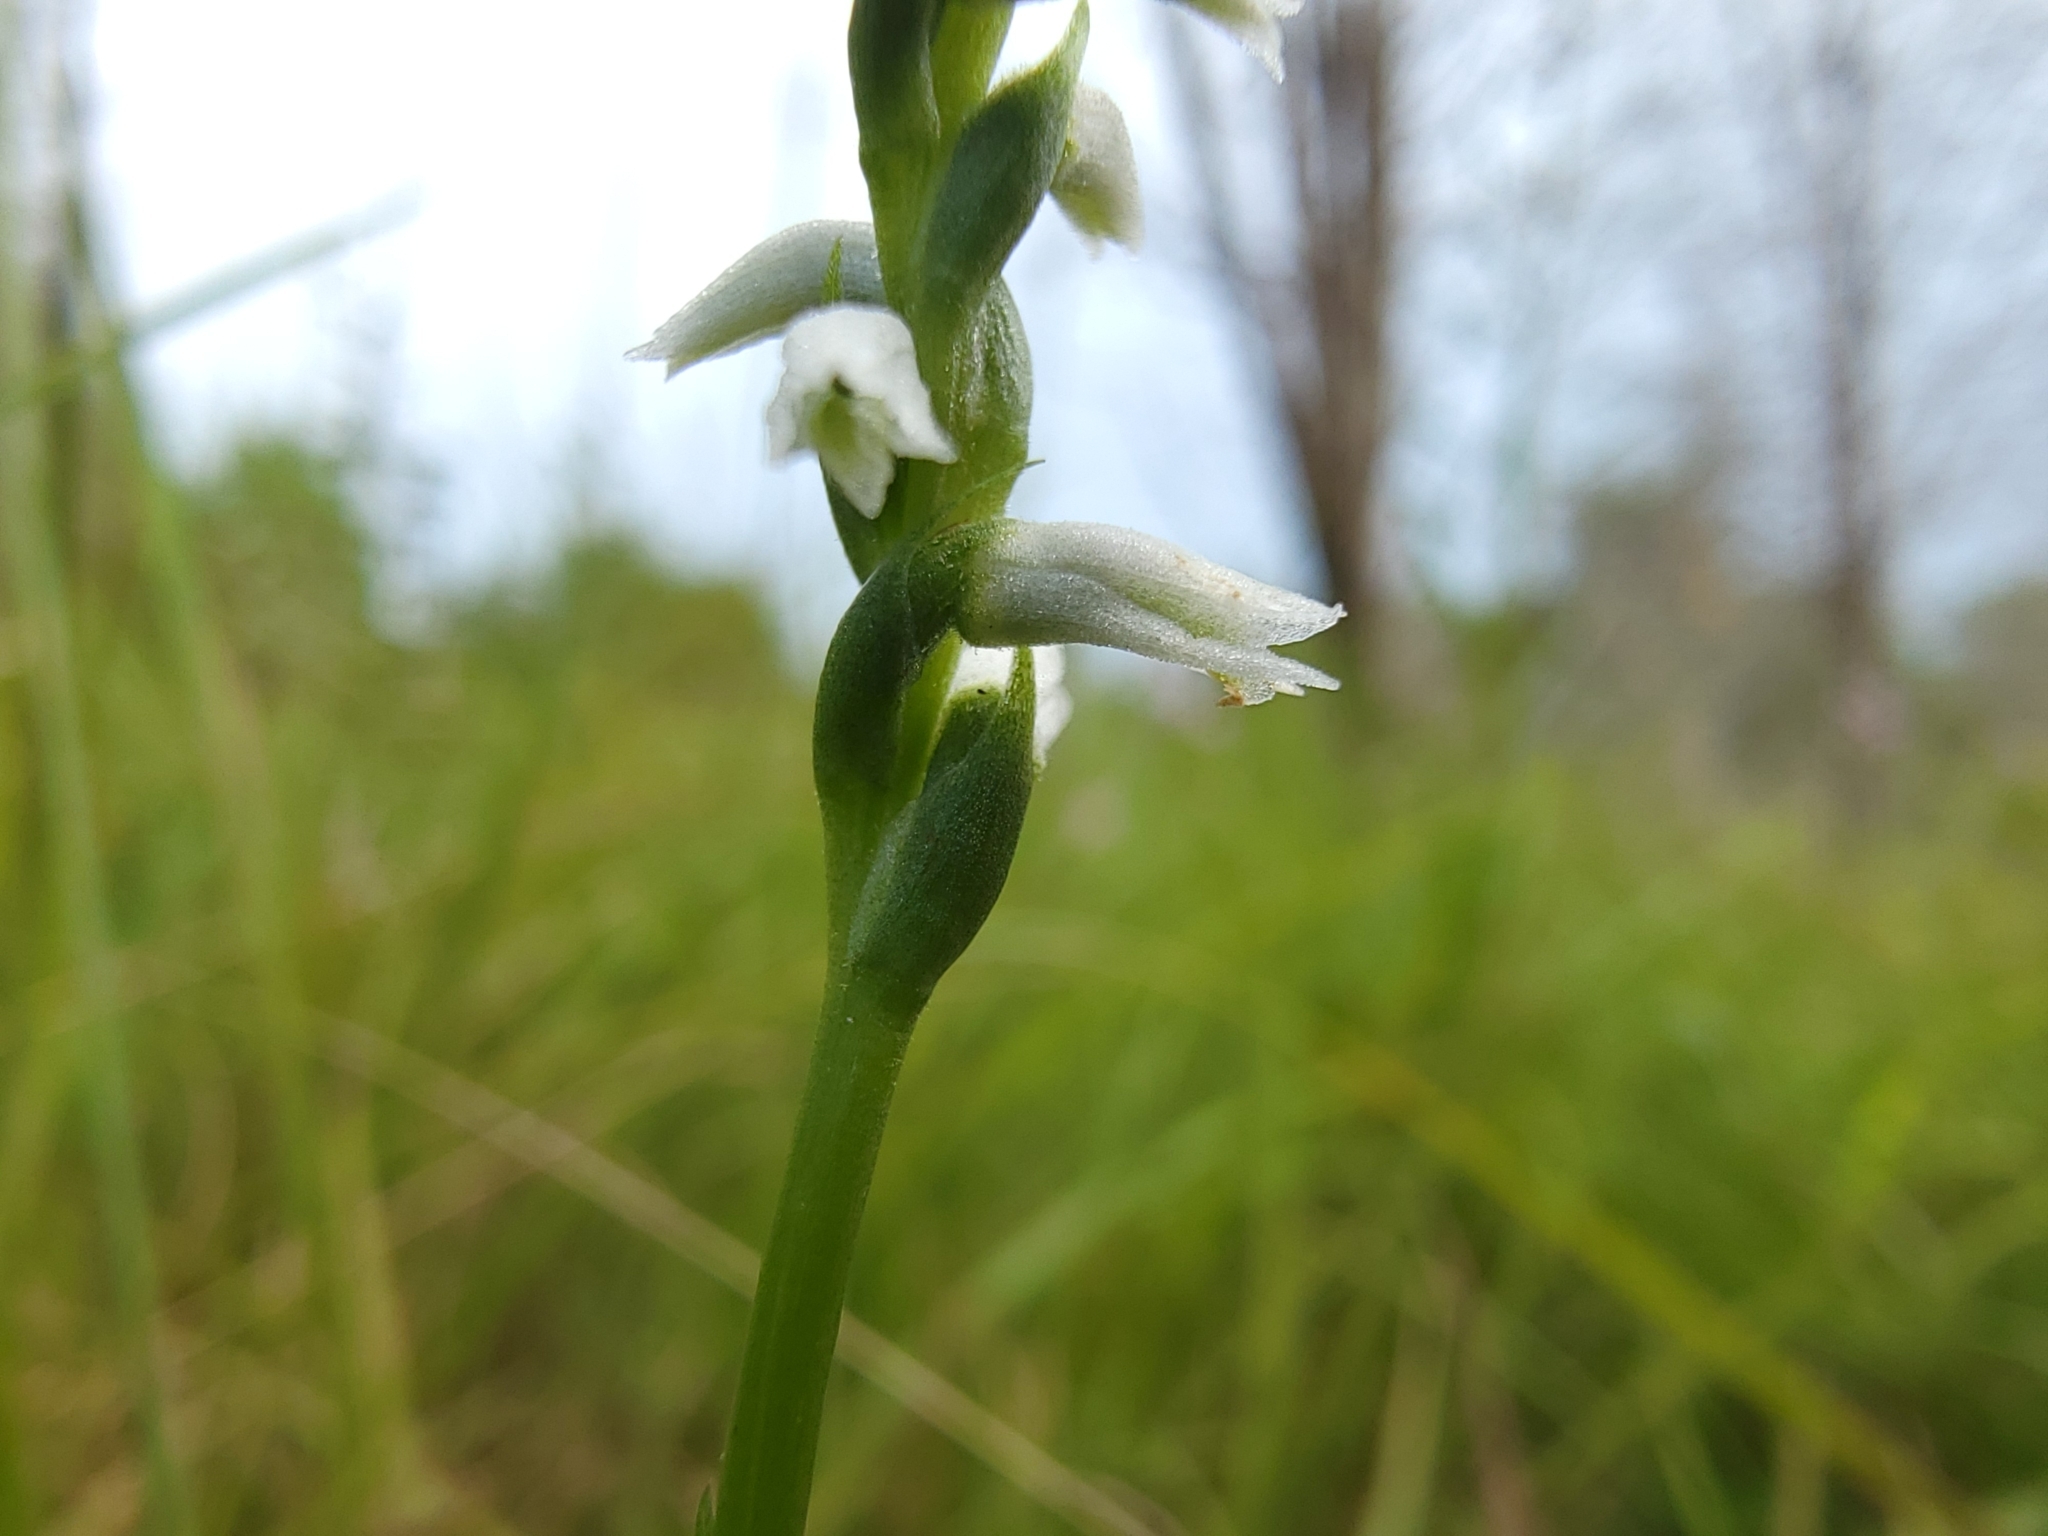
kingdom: Plantae
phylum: Tracheophyta
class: Liliopsida
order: Asparagales
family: Orchidaceae
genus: Spiranthes
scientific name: Spiranthes lacera
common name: Northern slender ladies'-tresses
